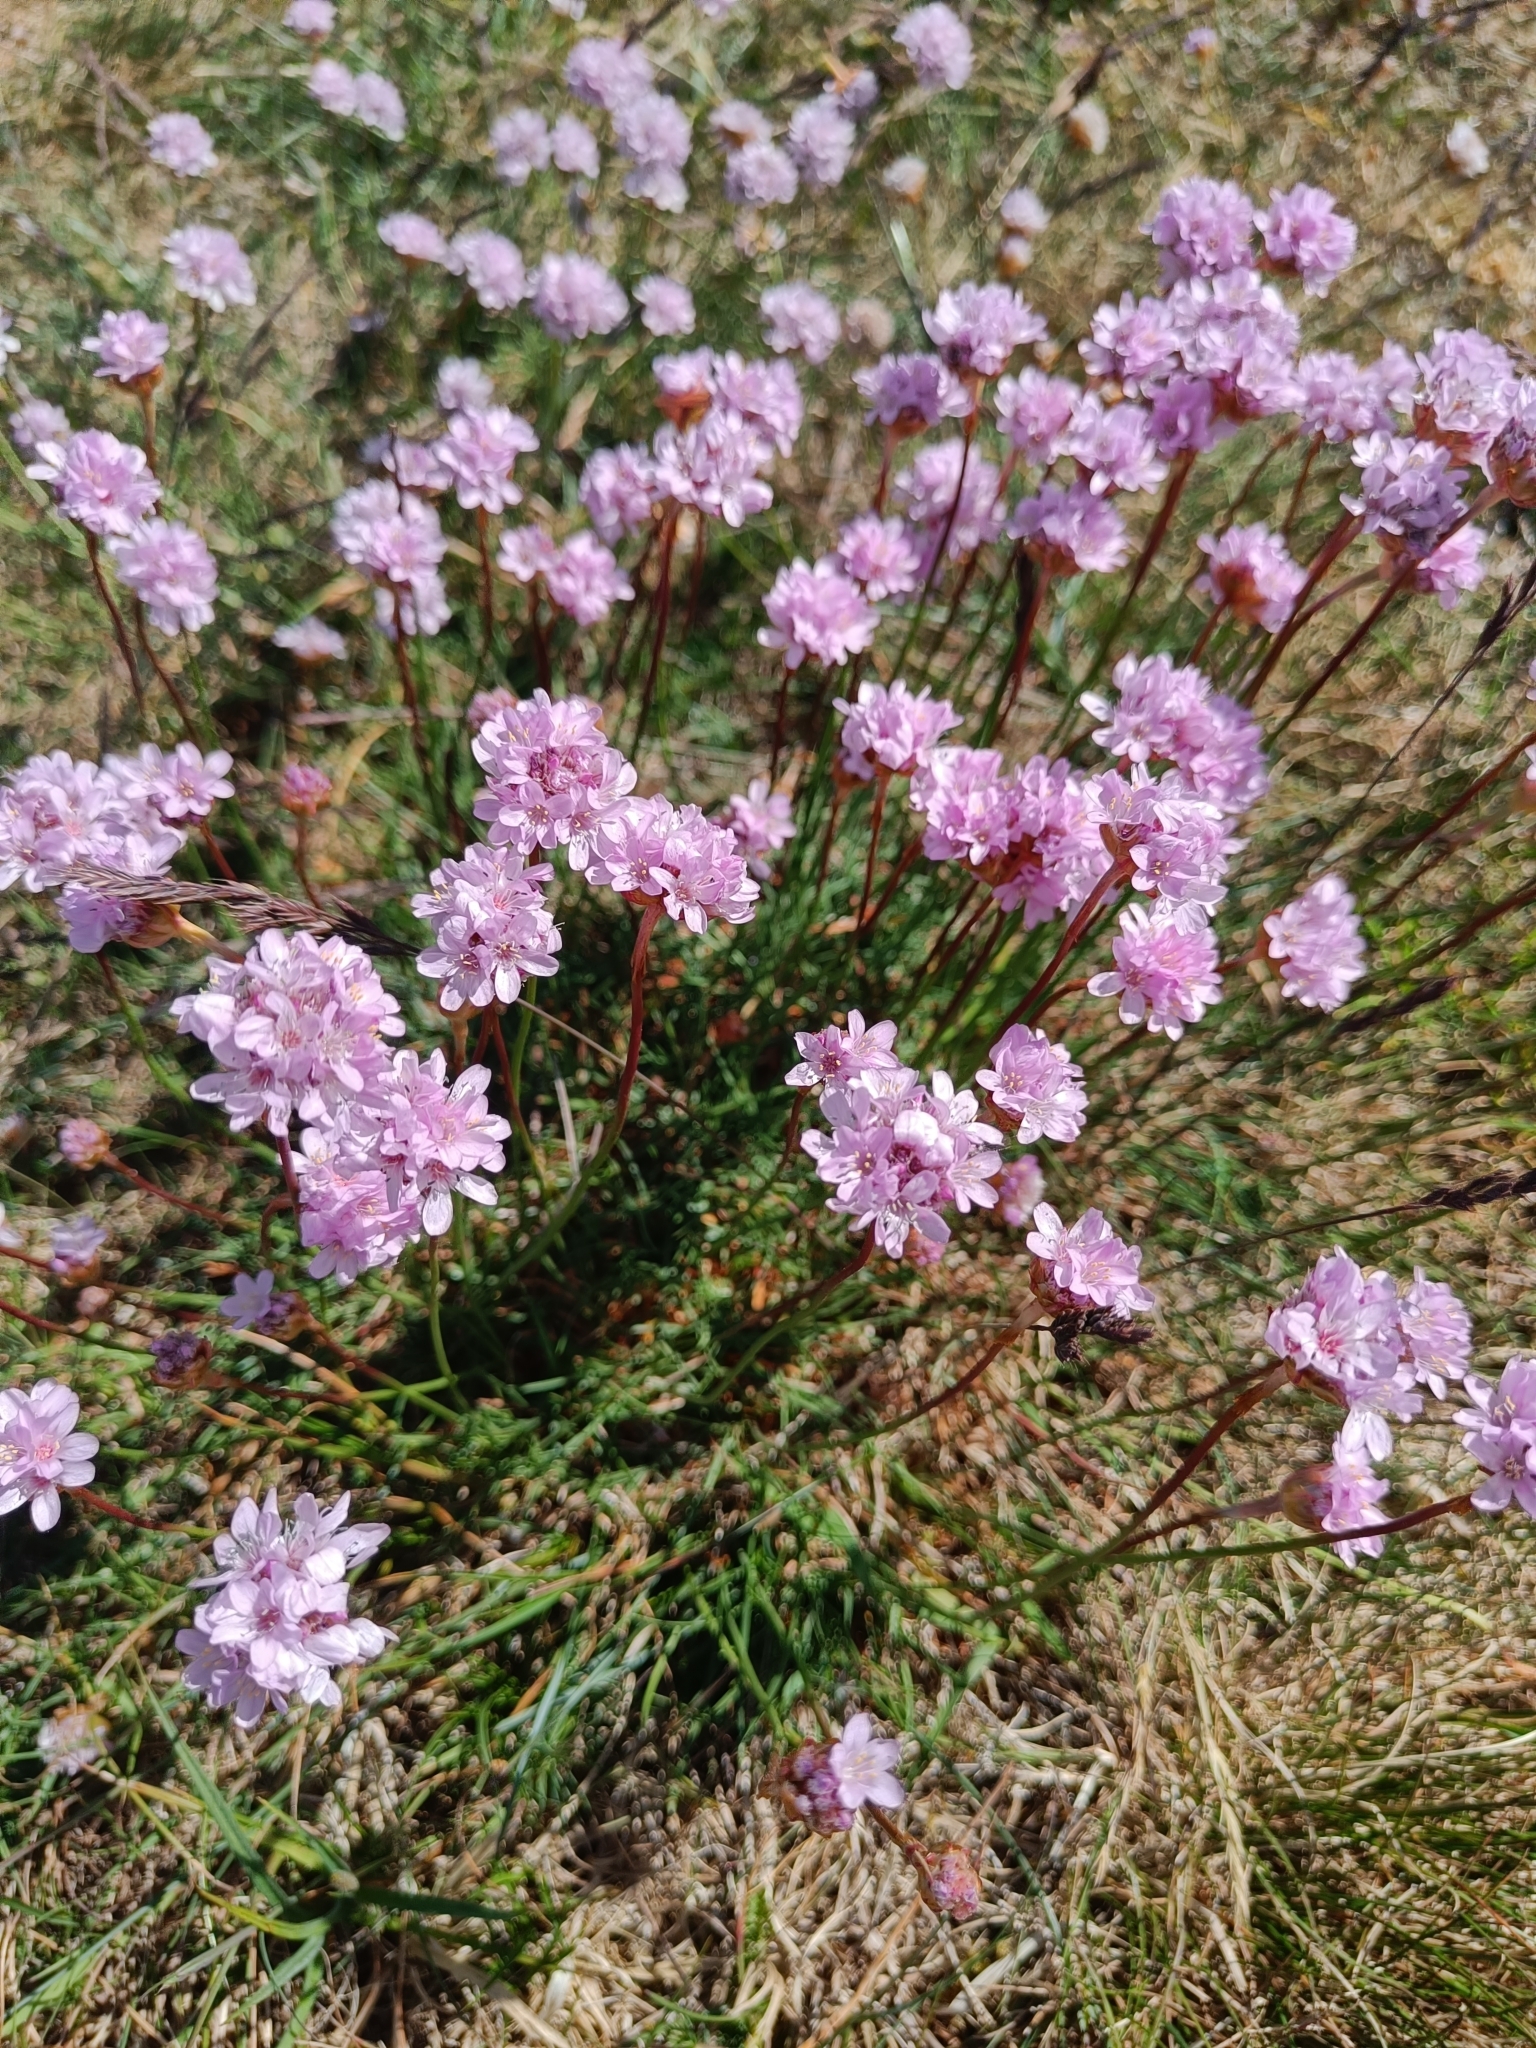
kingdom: Plantae
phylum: Tracheophyta
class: Magnoliopsida
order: Caryophyllales
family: Plumbaginaceae
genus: Armeria
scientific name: Armeria maritima
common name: Thrift
